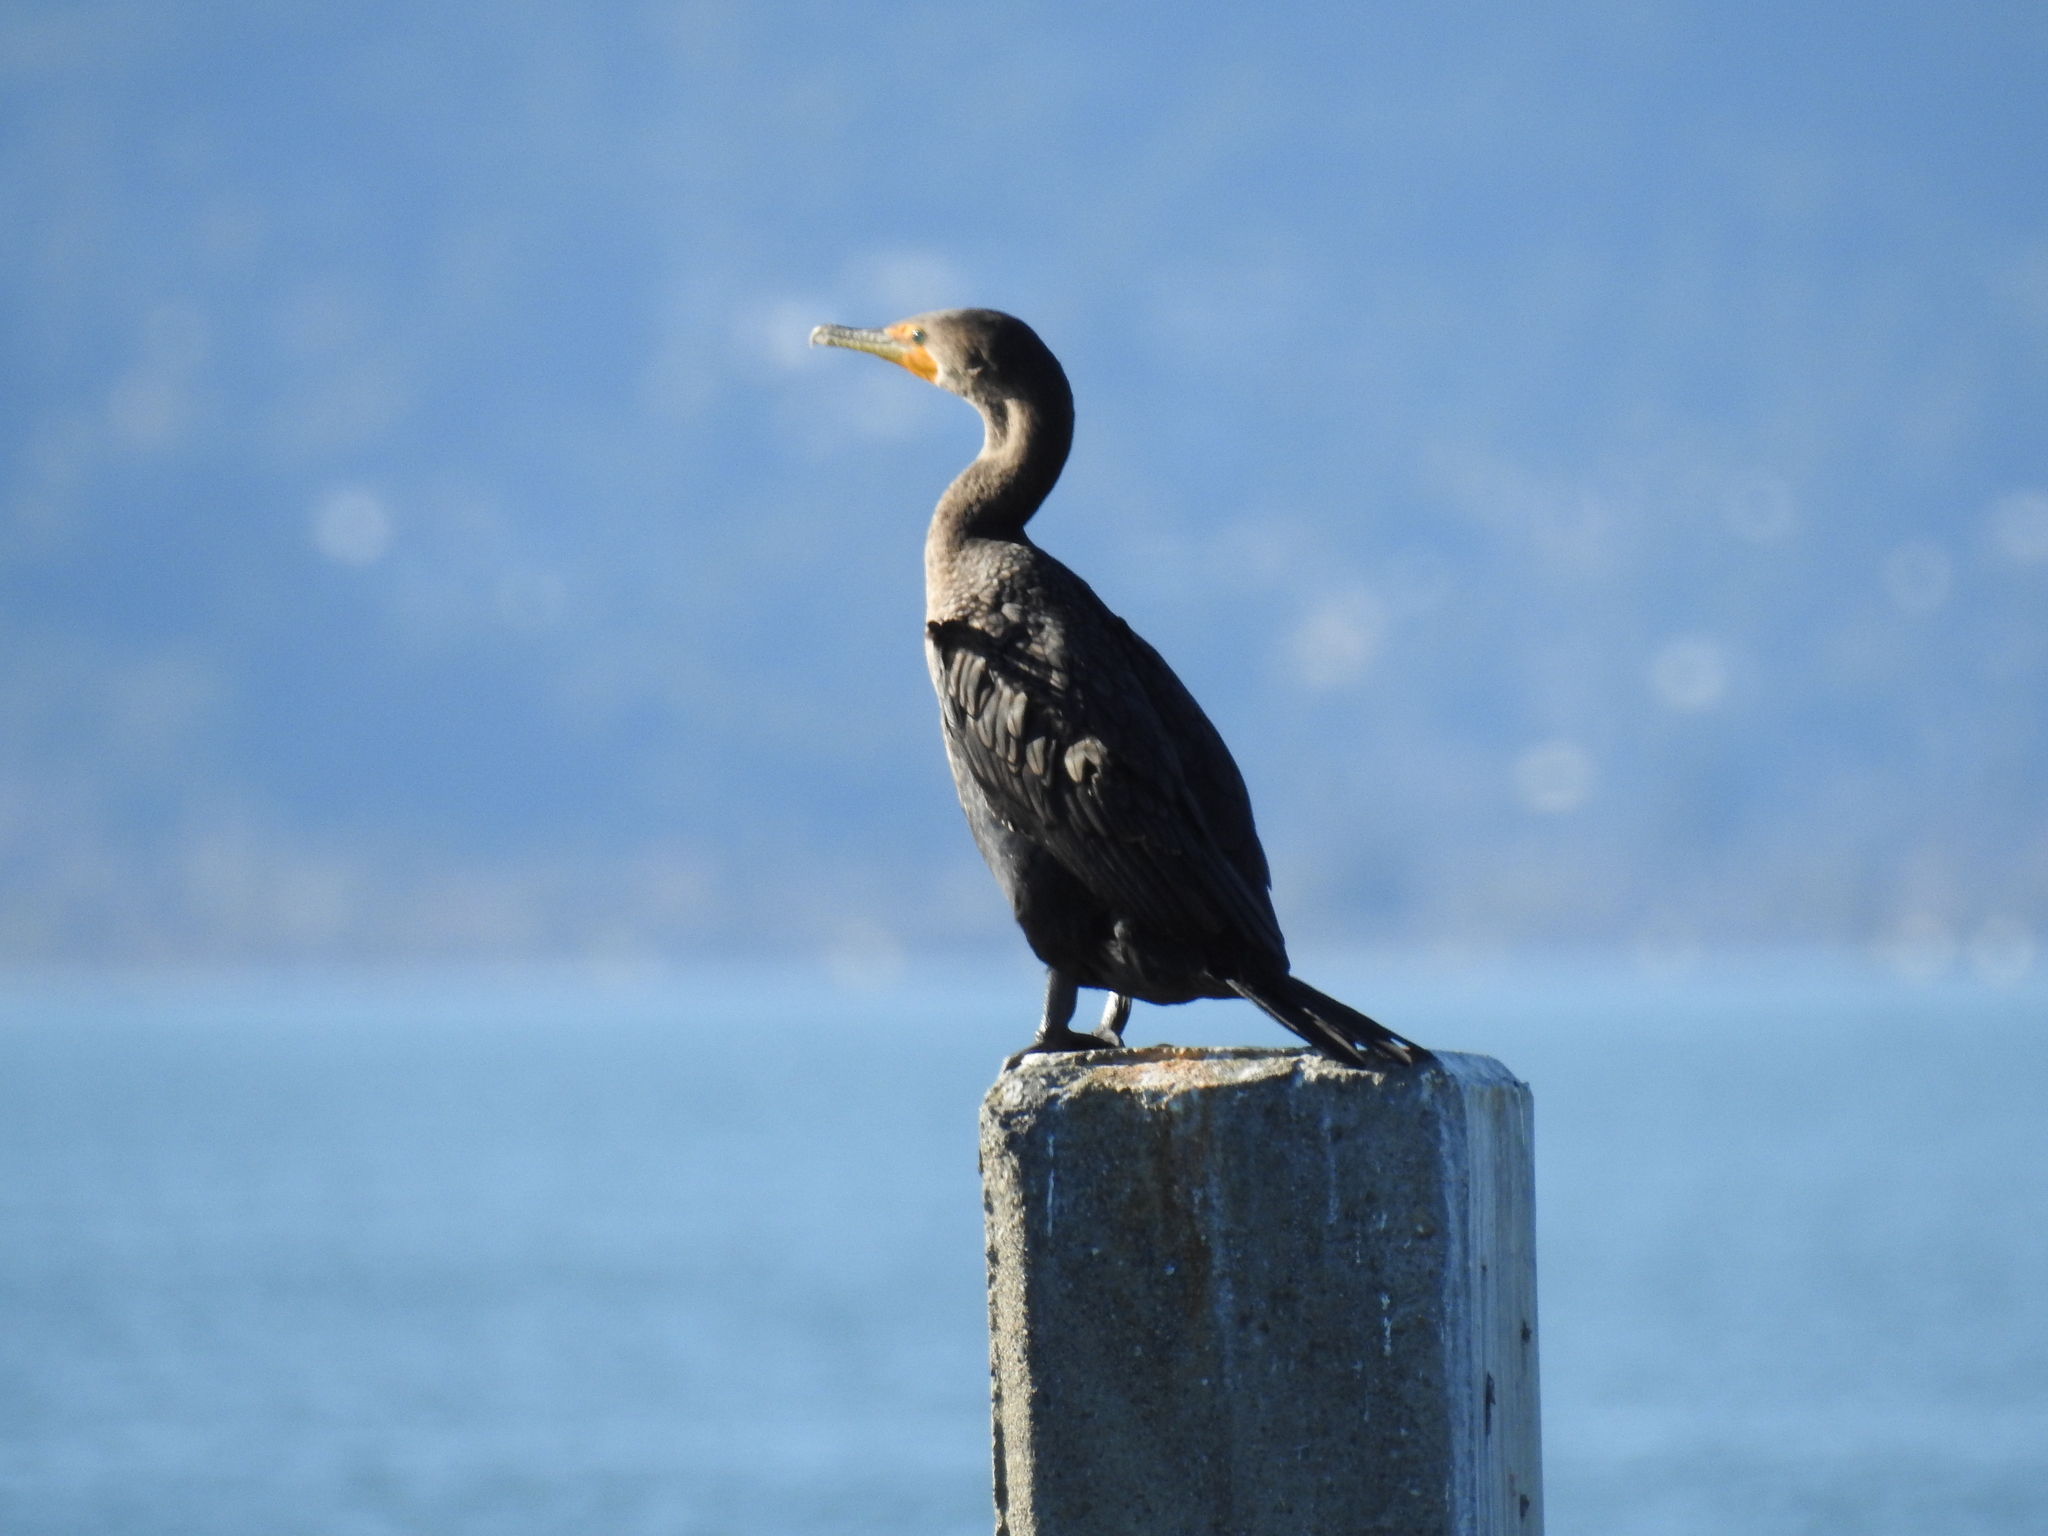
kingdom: Animalia
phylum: Chordata
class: Aves
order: Suliformes
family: Phalacrocoracidae
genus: Phalacrocorax
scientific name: Phalacrocorax auritus
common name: Double-crested cormorant
